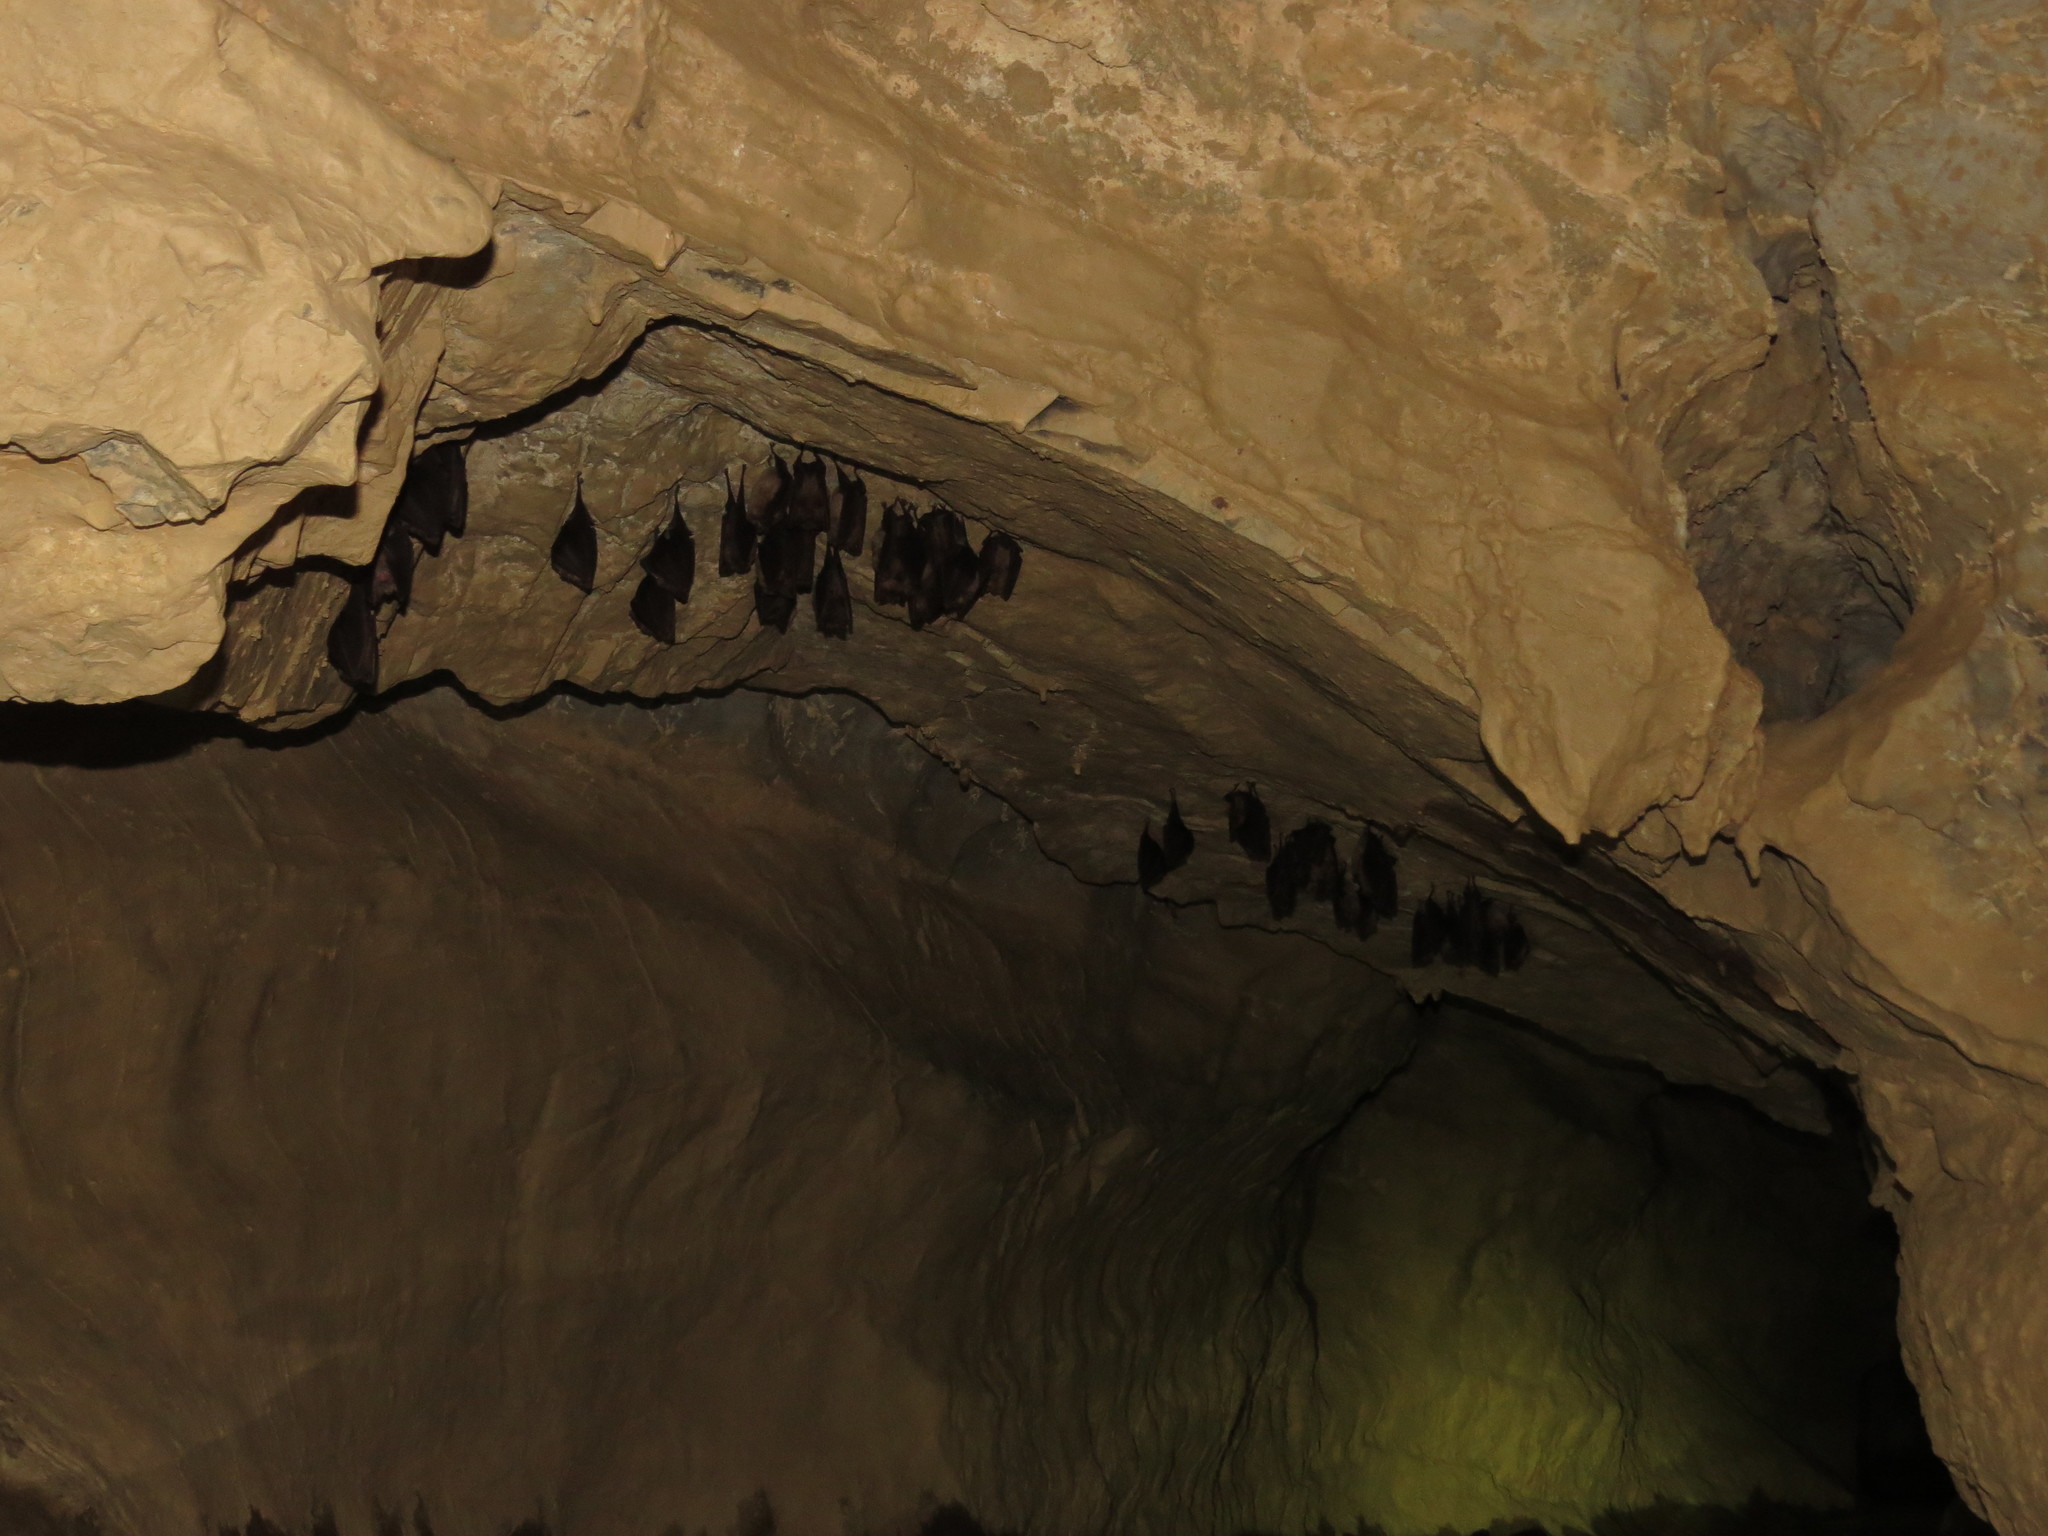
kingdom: Animalia
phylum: Chordata
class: Mammalia
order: Chiroptera
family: Rhinolophidae
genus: Rhinolophus
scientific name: Rhinolophus ferrumequinum
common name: Greater horseshoe bat
